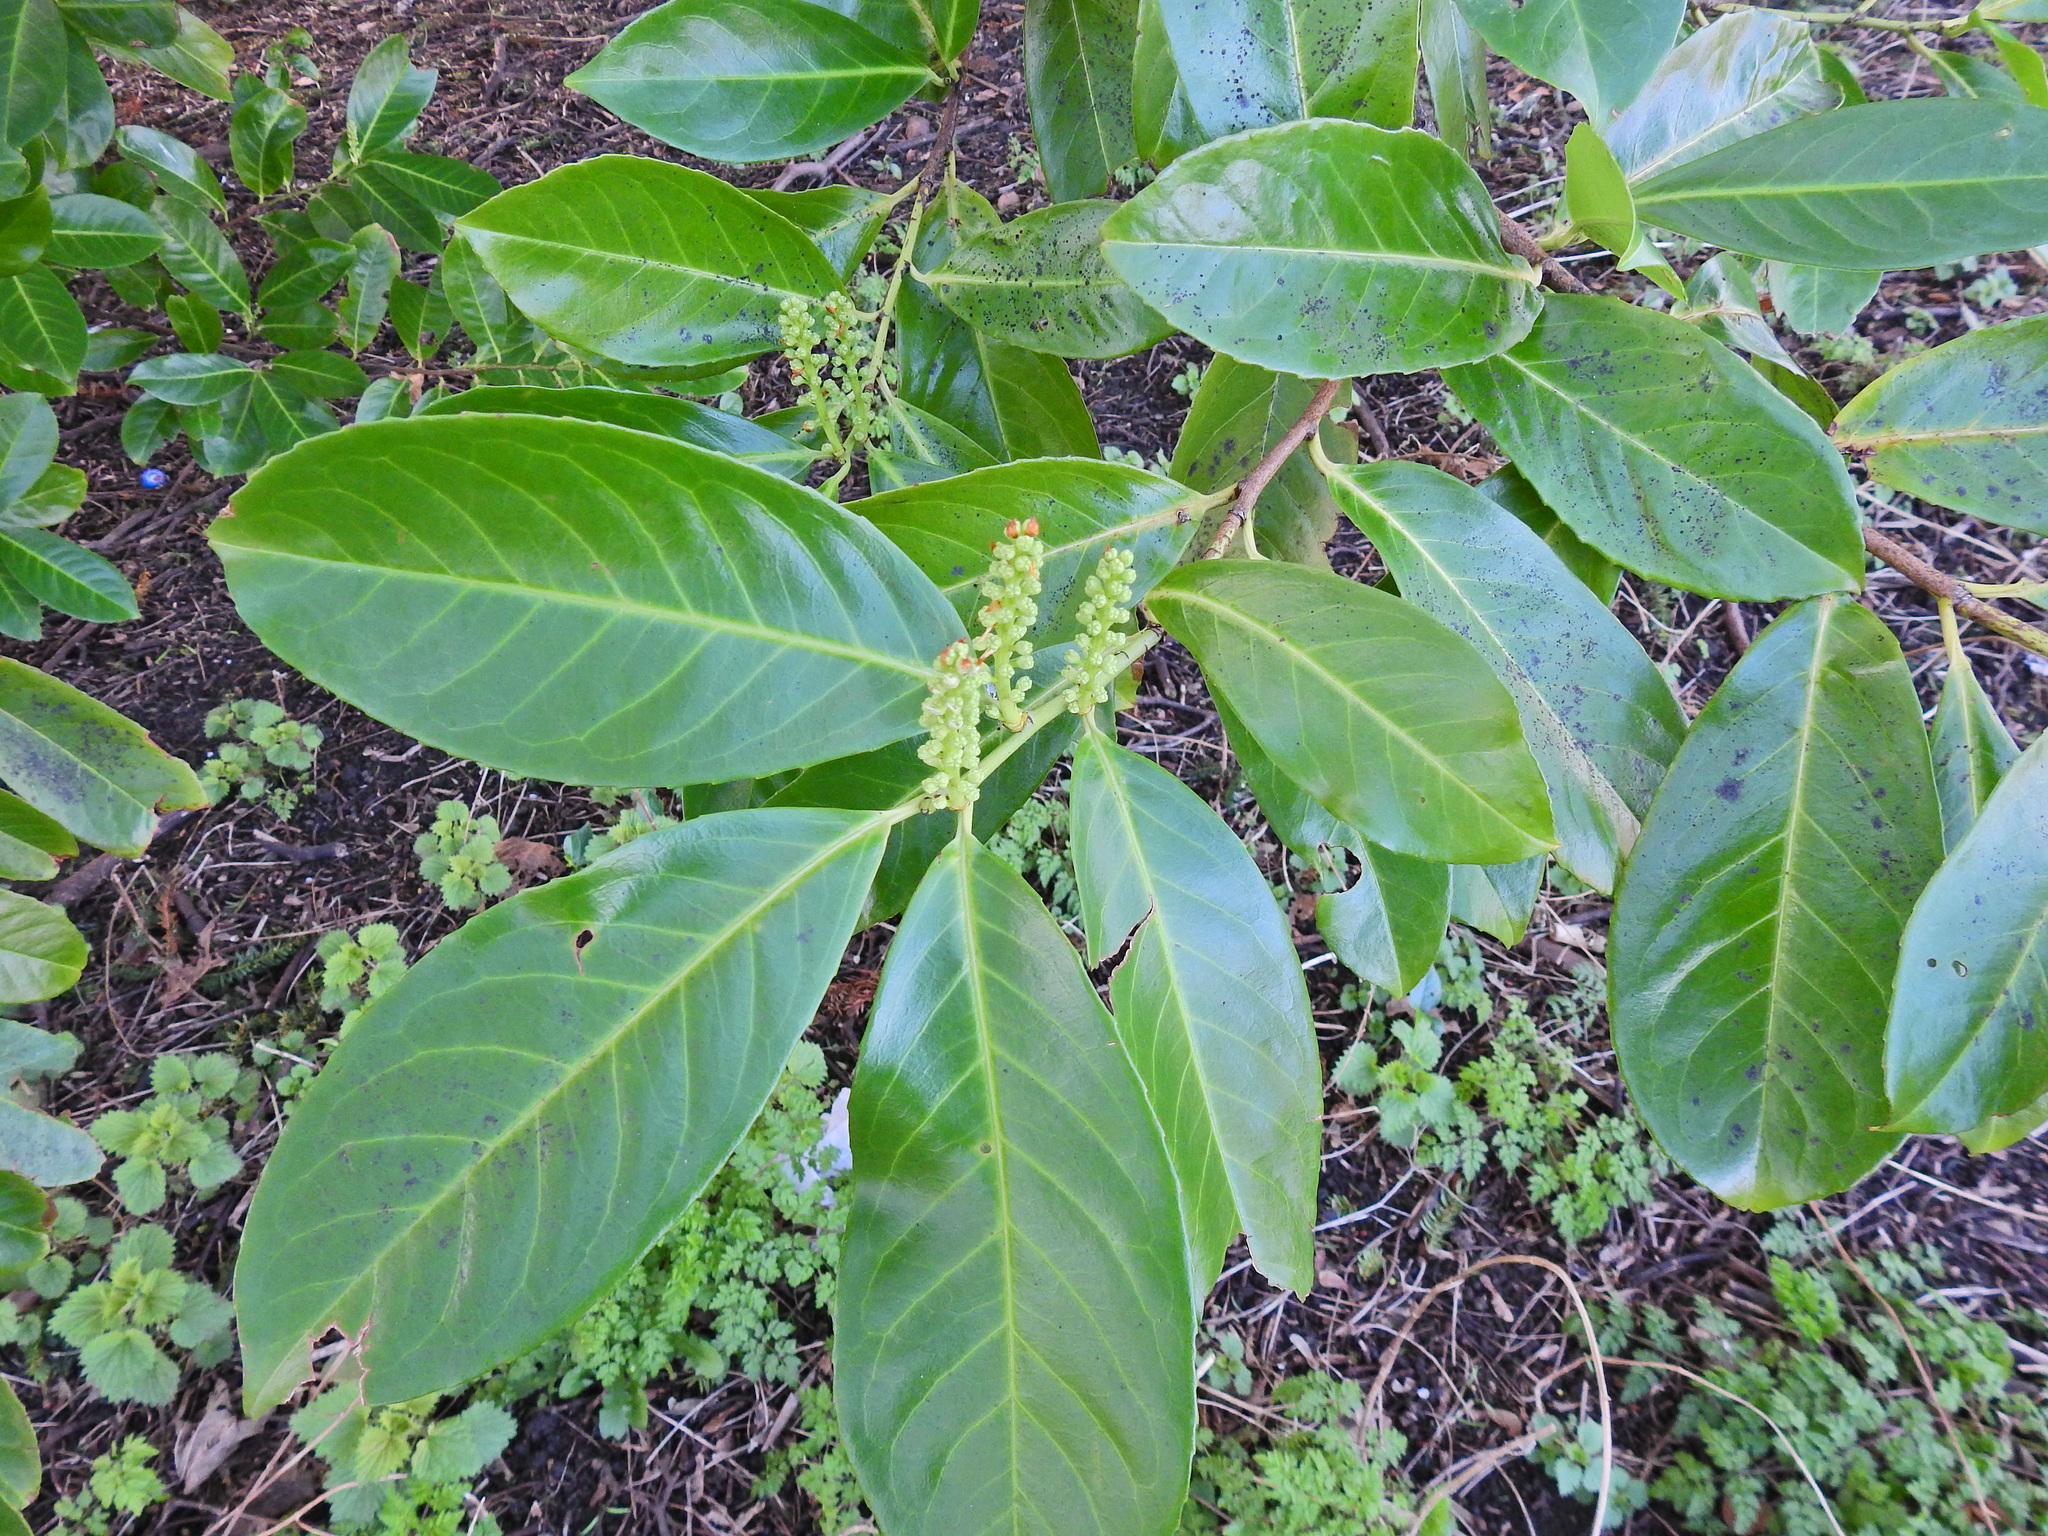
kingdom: Plantae
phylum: Tracheophyta
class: Magnoliopsida
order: Rosales
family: Rosaceae
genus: Prunus
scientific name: Prunus laurocerasus
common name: Cherry laurel
